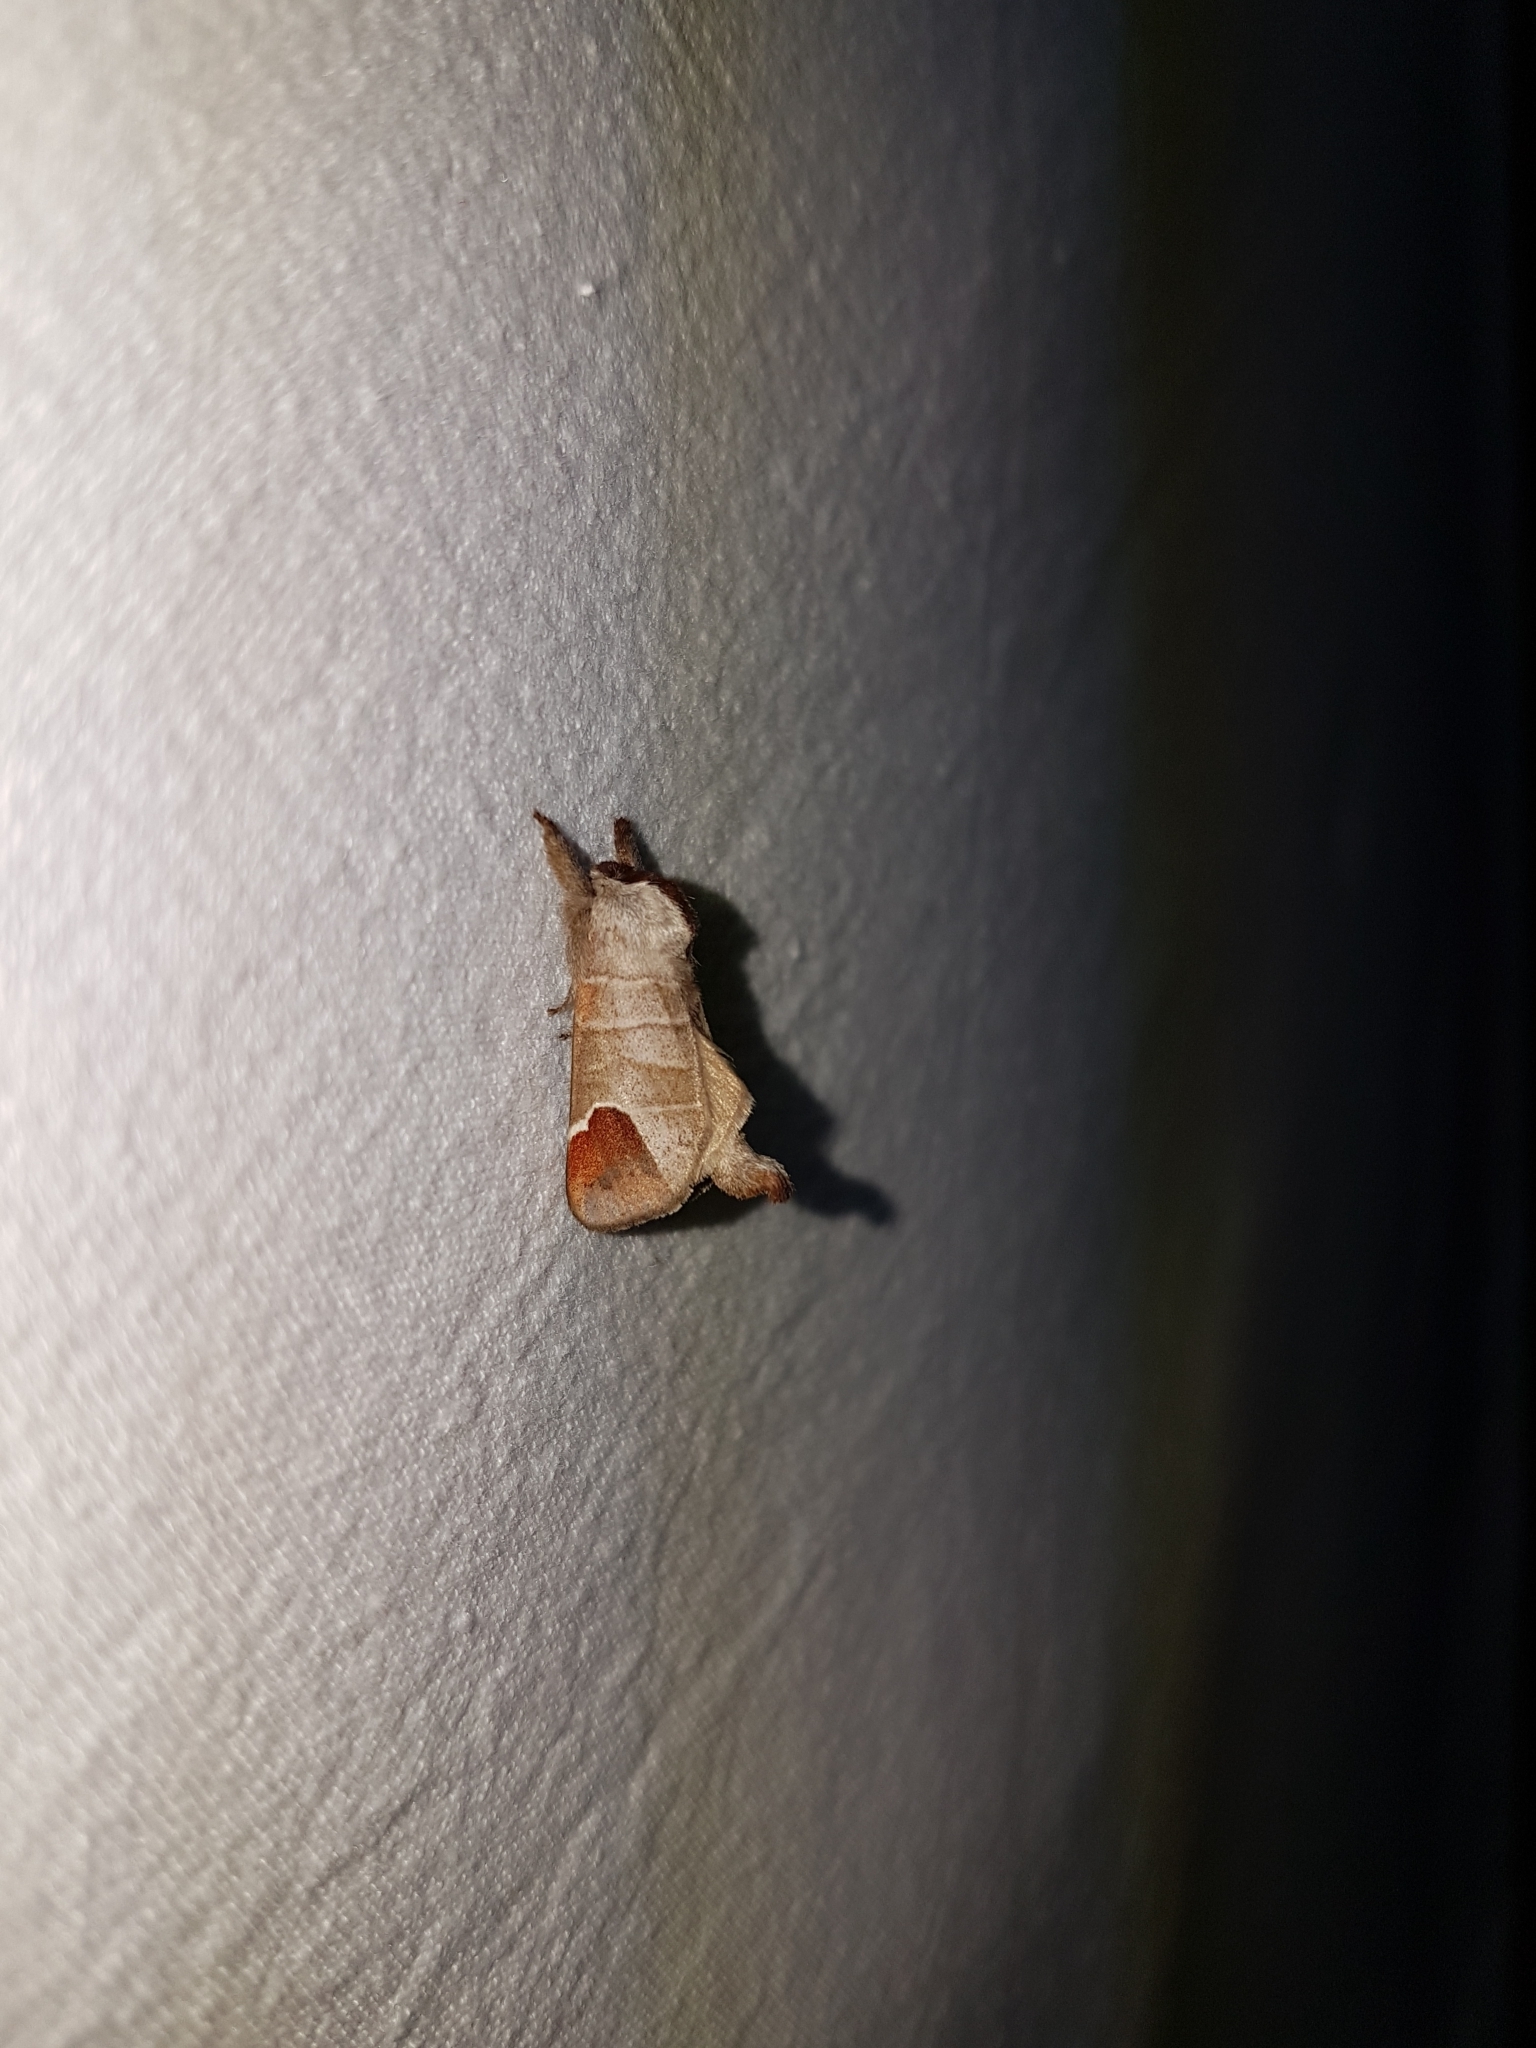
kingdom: Animalia
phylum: Arthropoda
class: Insecta
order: Lepidoptera
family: Notodontidae
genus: Clostera
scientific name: Clostera curtula
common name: Chocolate-tip
